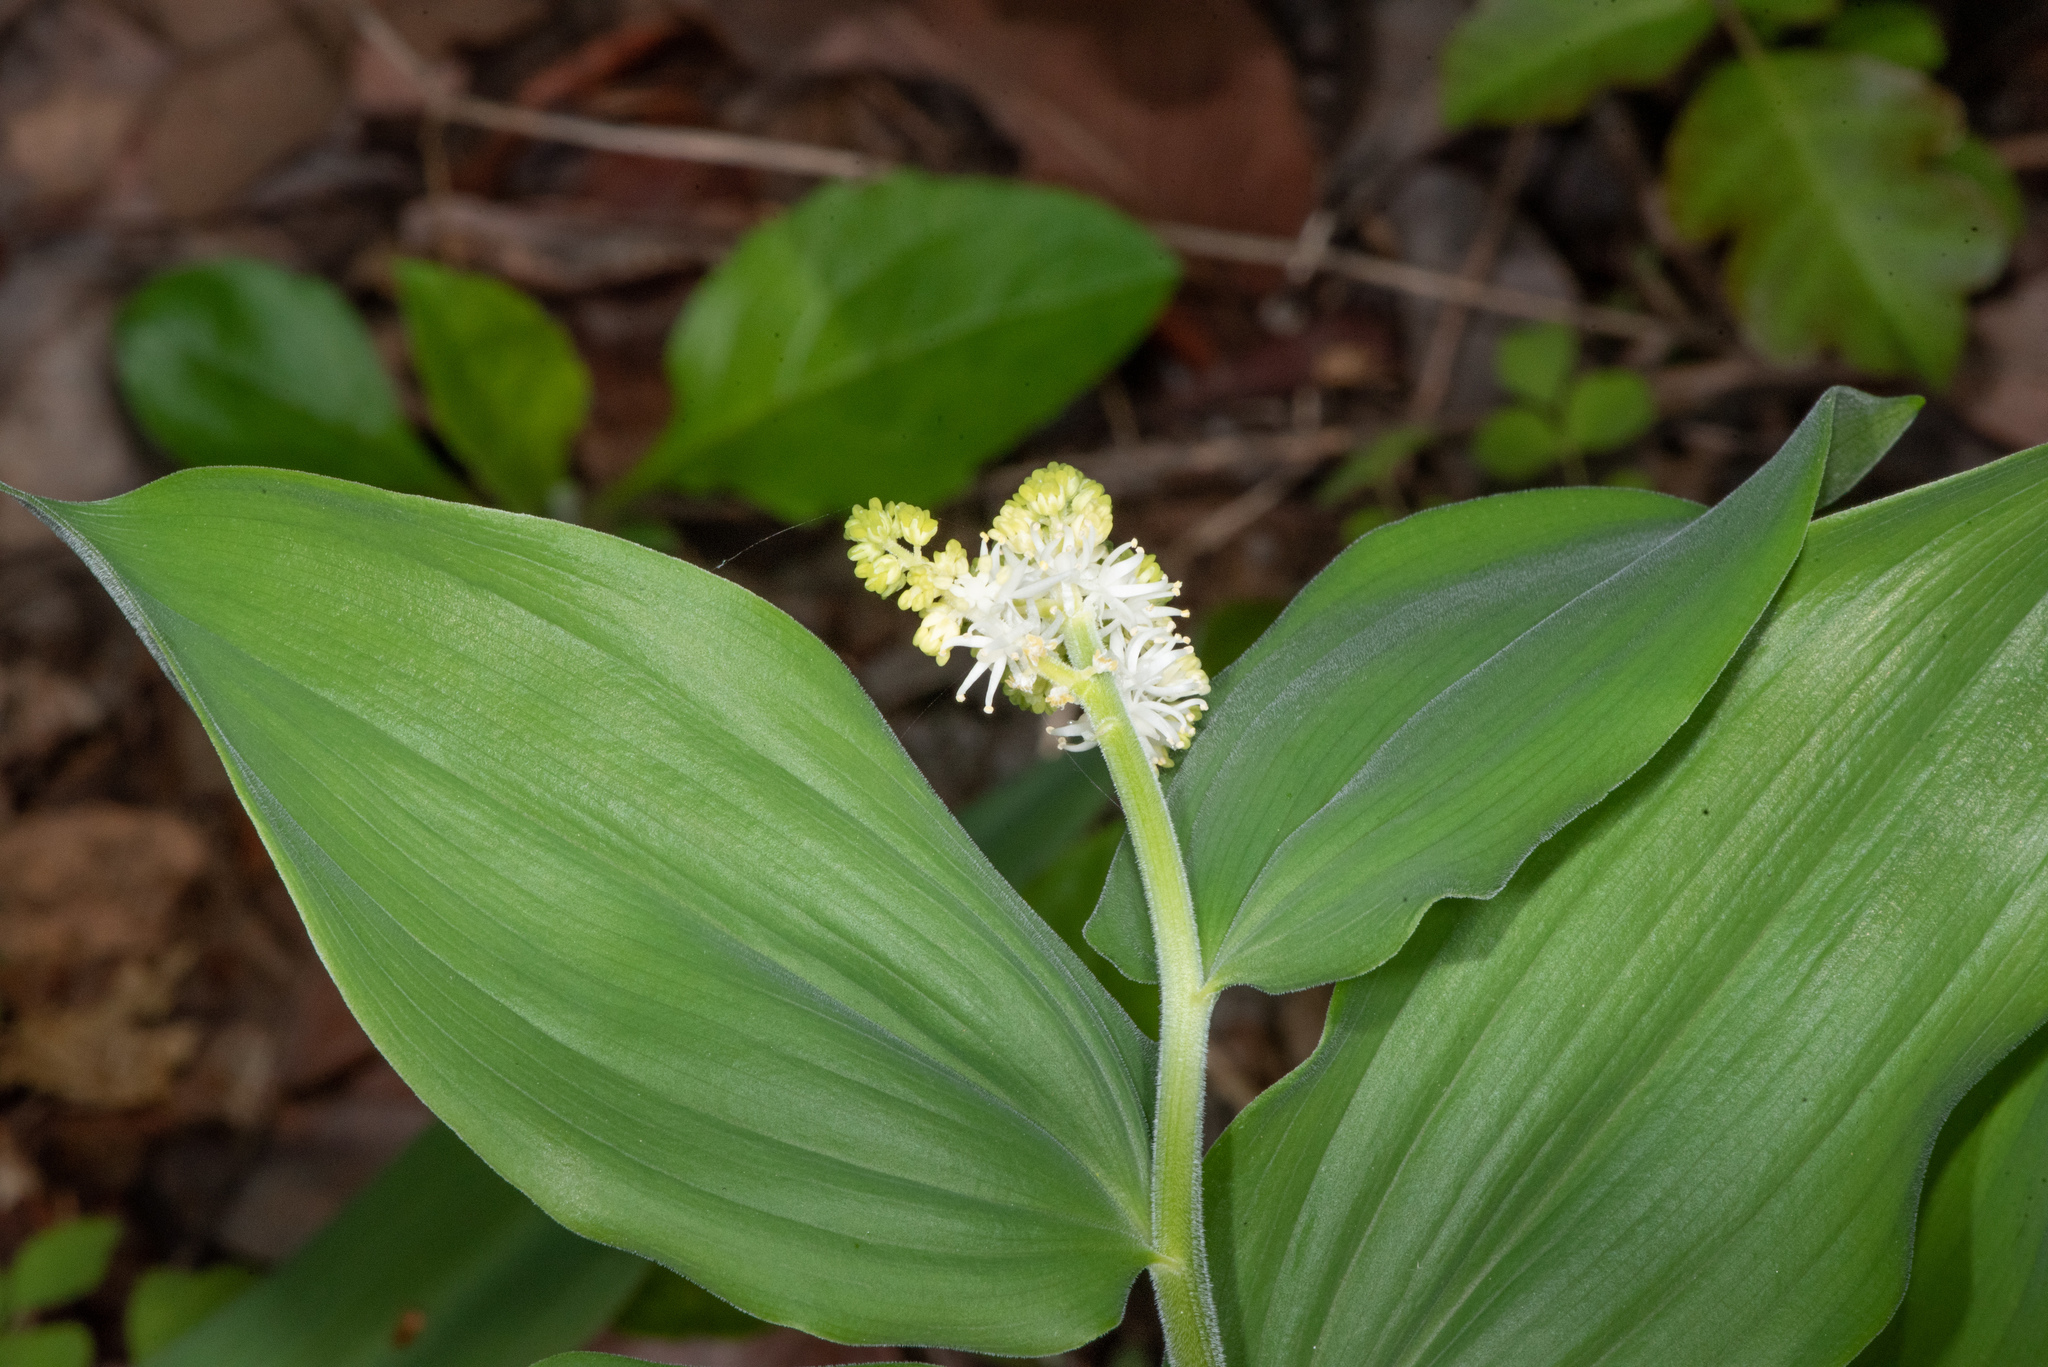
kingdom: Plantae
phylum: Tracheophyta
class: Liliopsida
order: Asparagales
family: Asparagaceae
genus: Maianthemum
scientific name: Maianthemum racemosum
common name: False spikenard
